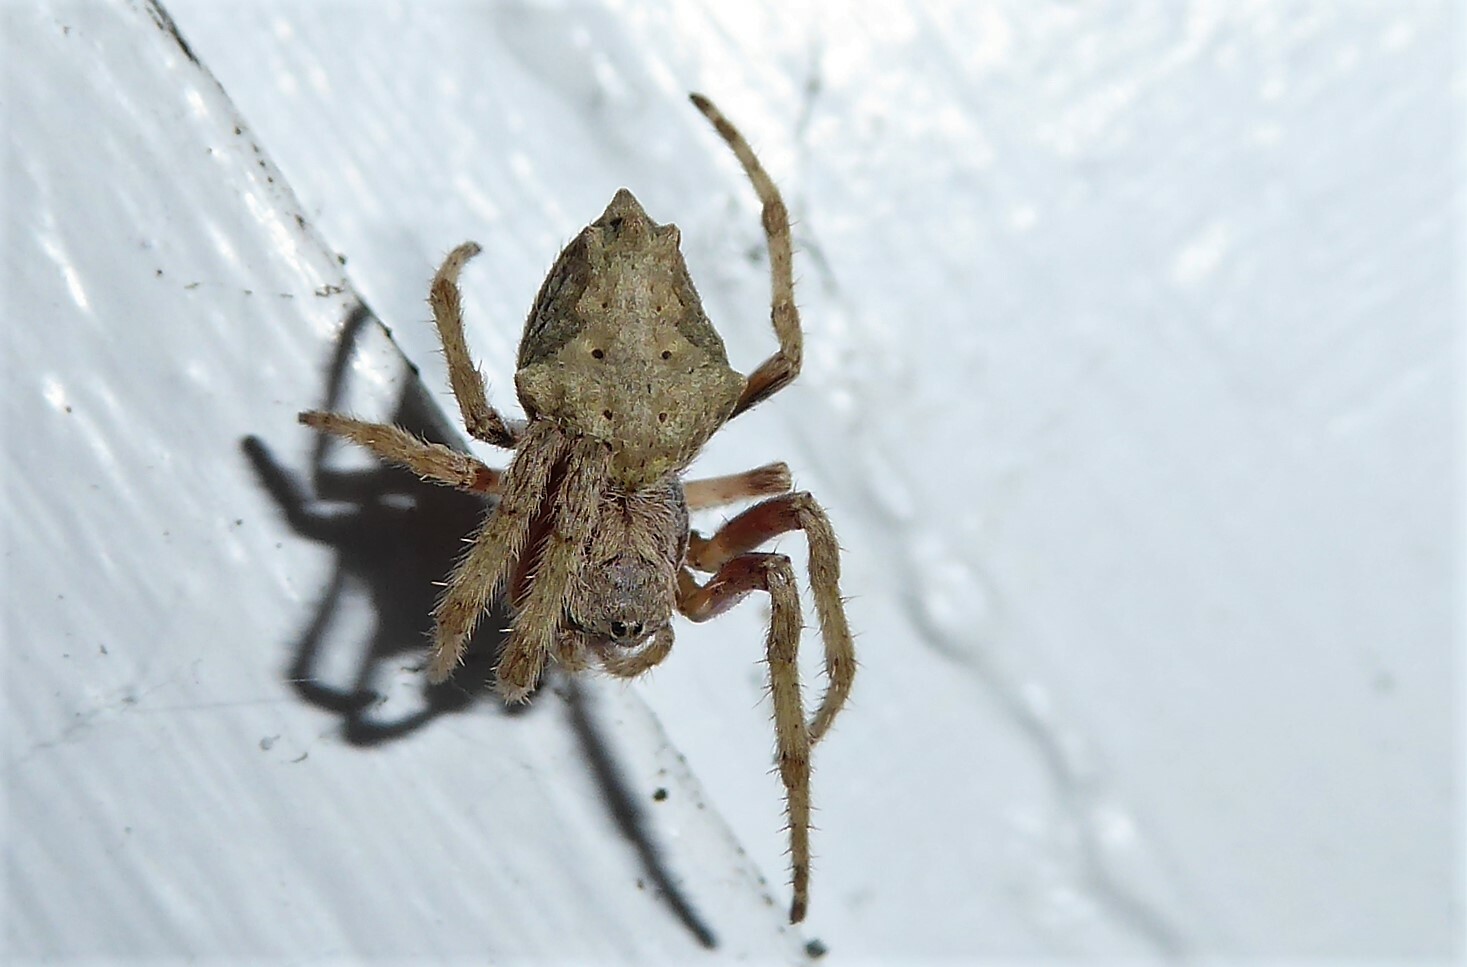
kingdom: Animalia
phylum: Arthropoda
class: Arachnida
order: Araneae
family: Araneidae
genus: Eriophora
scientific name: Eriophora pustulosa
